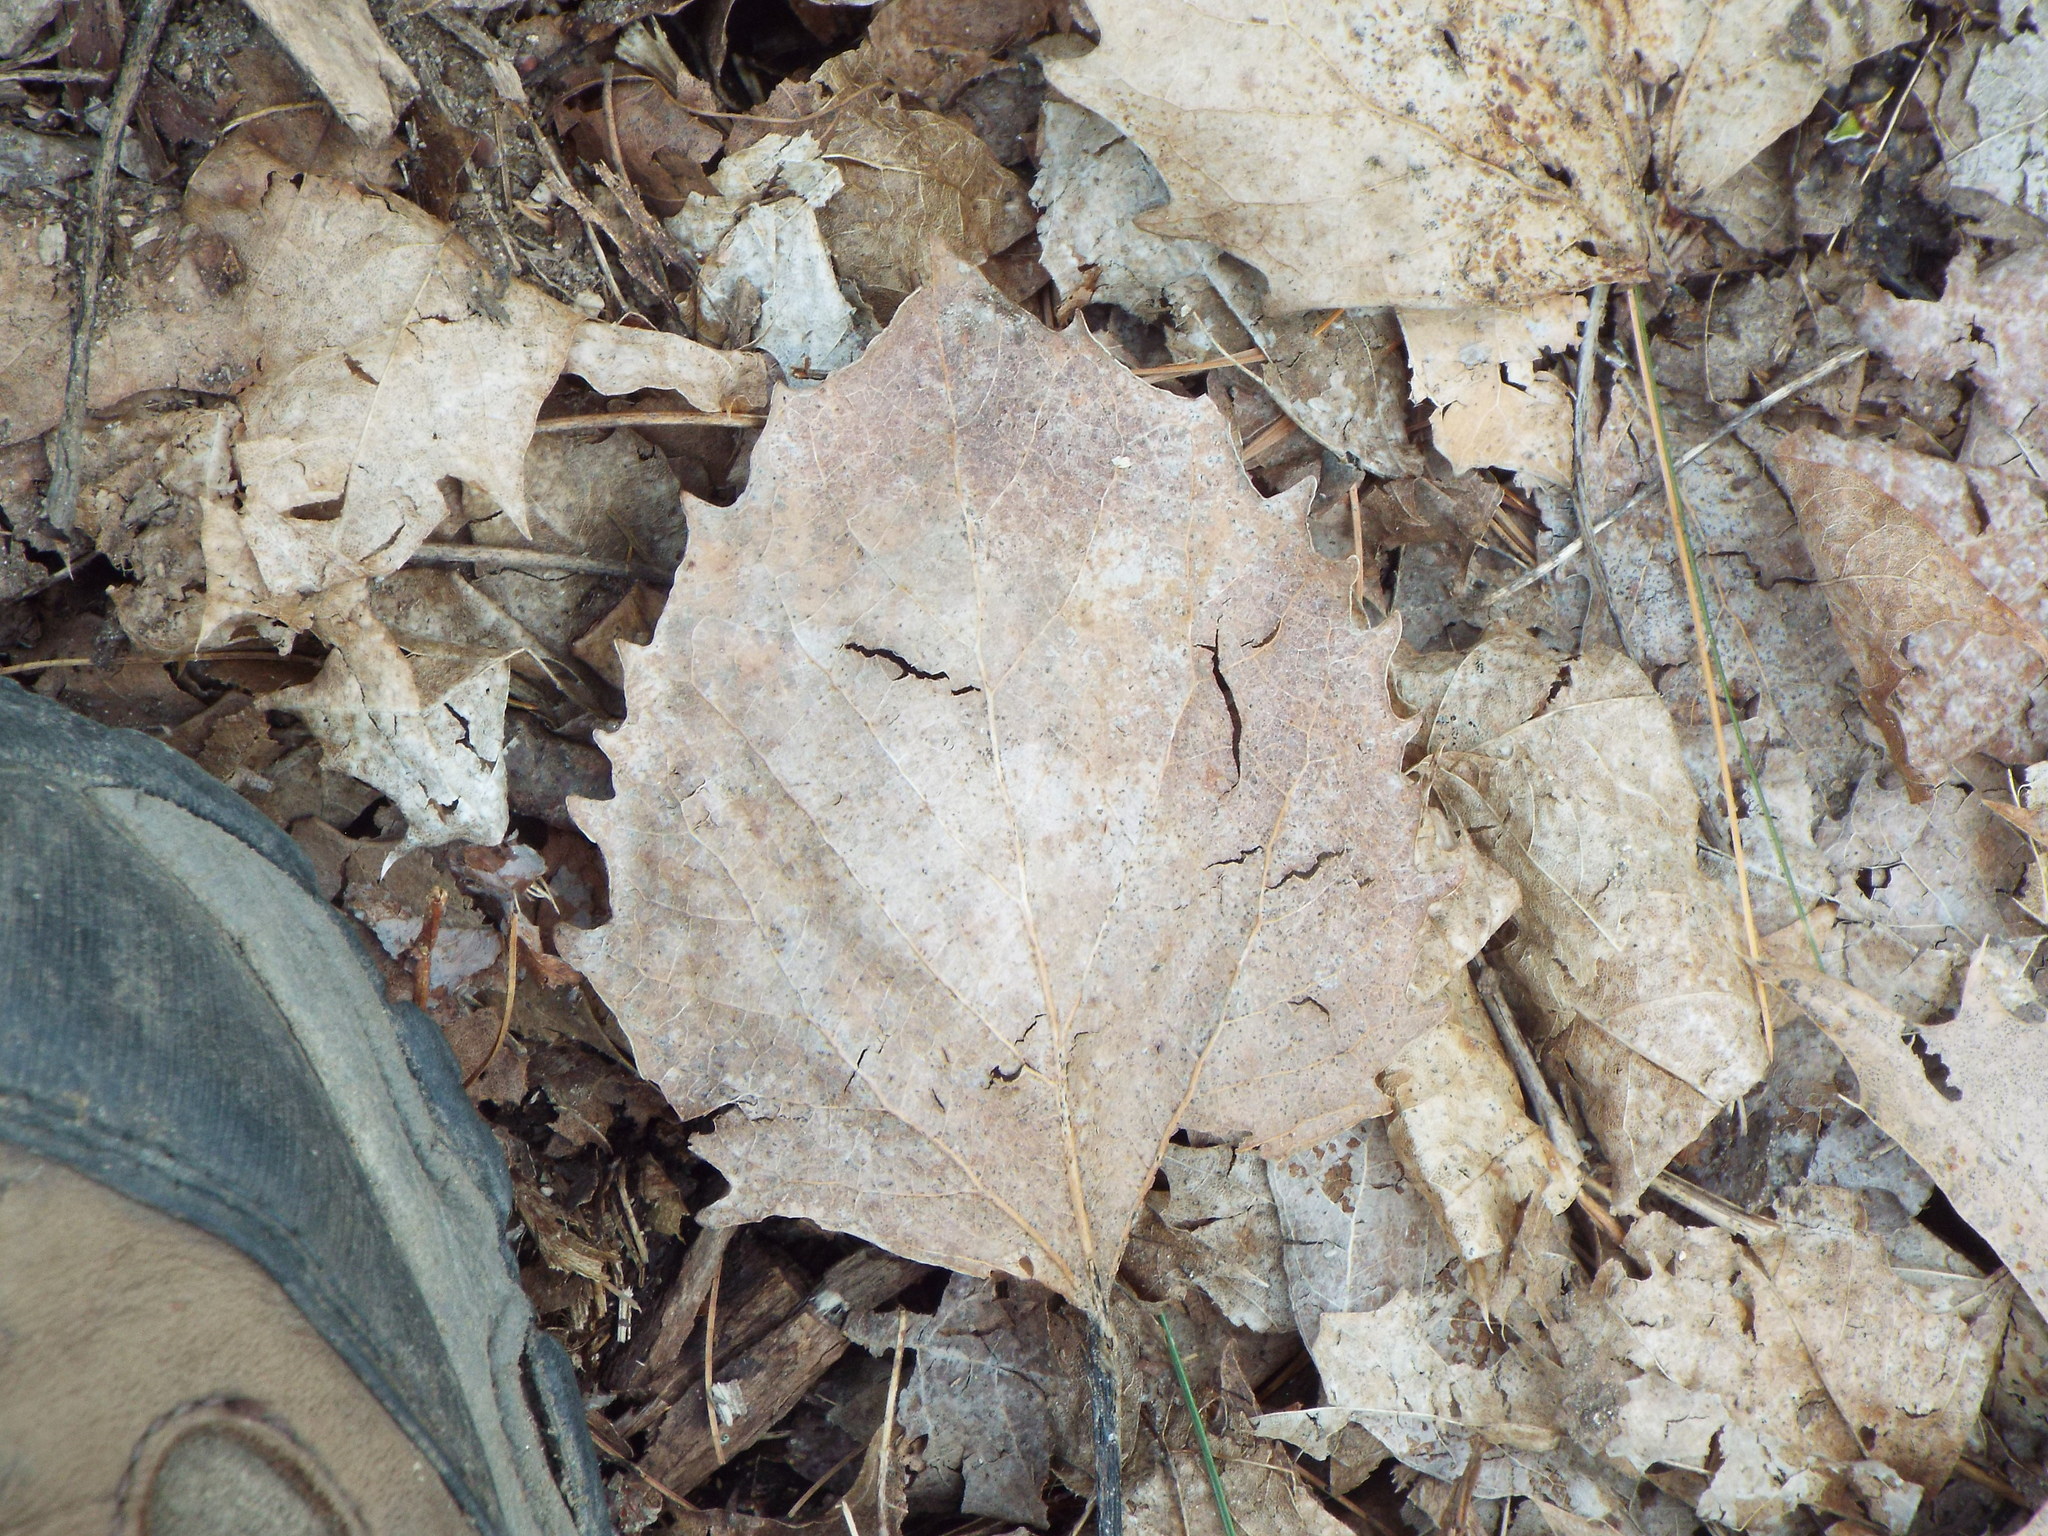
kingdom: Plantae
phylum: Tracheophyta
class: Magnoliopsida
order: Malpighiales
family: Salicaceae
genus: Populus
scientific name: Populus grandidentata
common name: Bigtooth aspen
